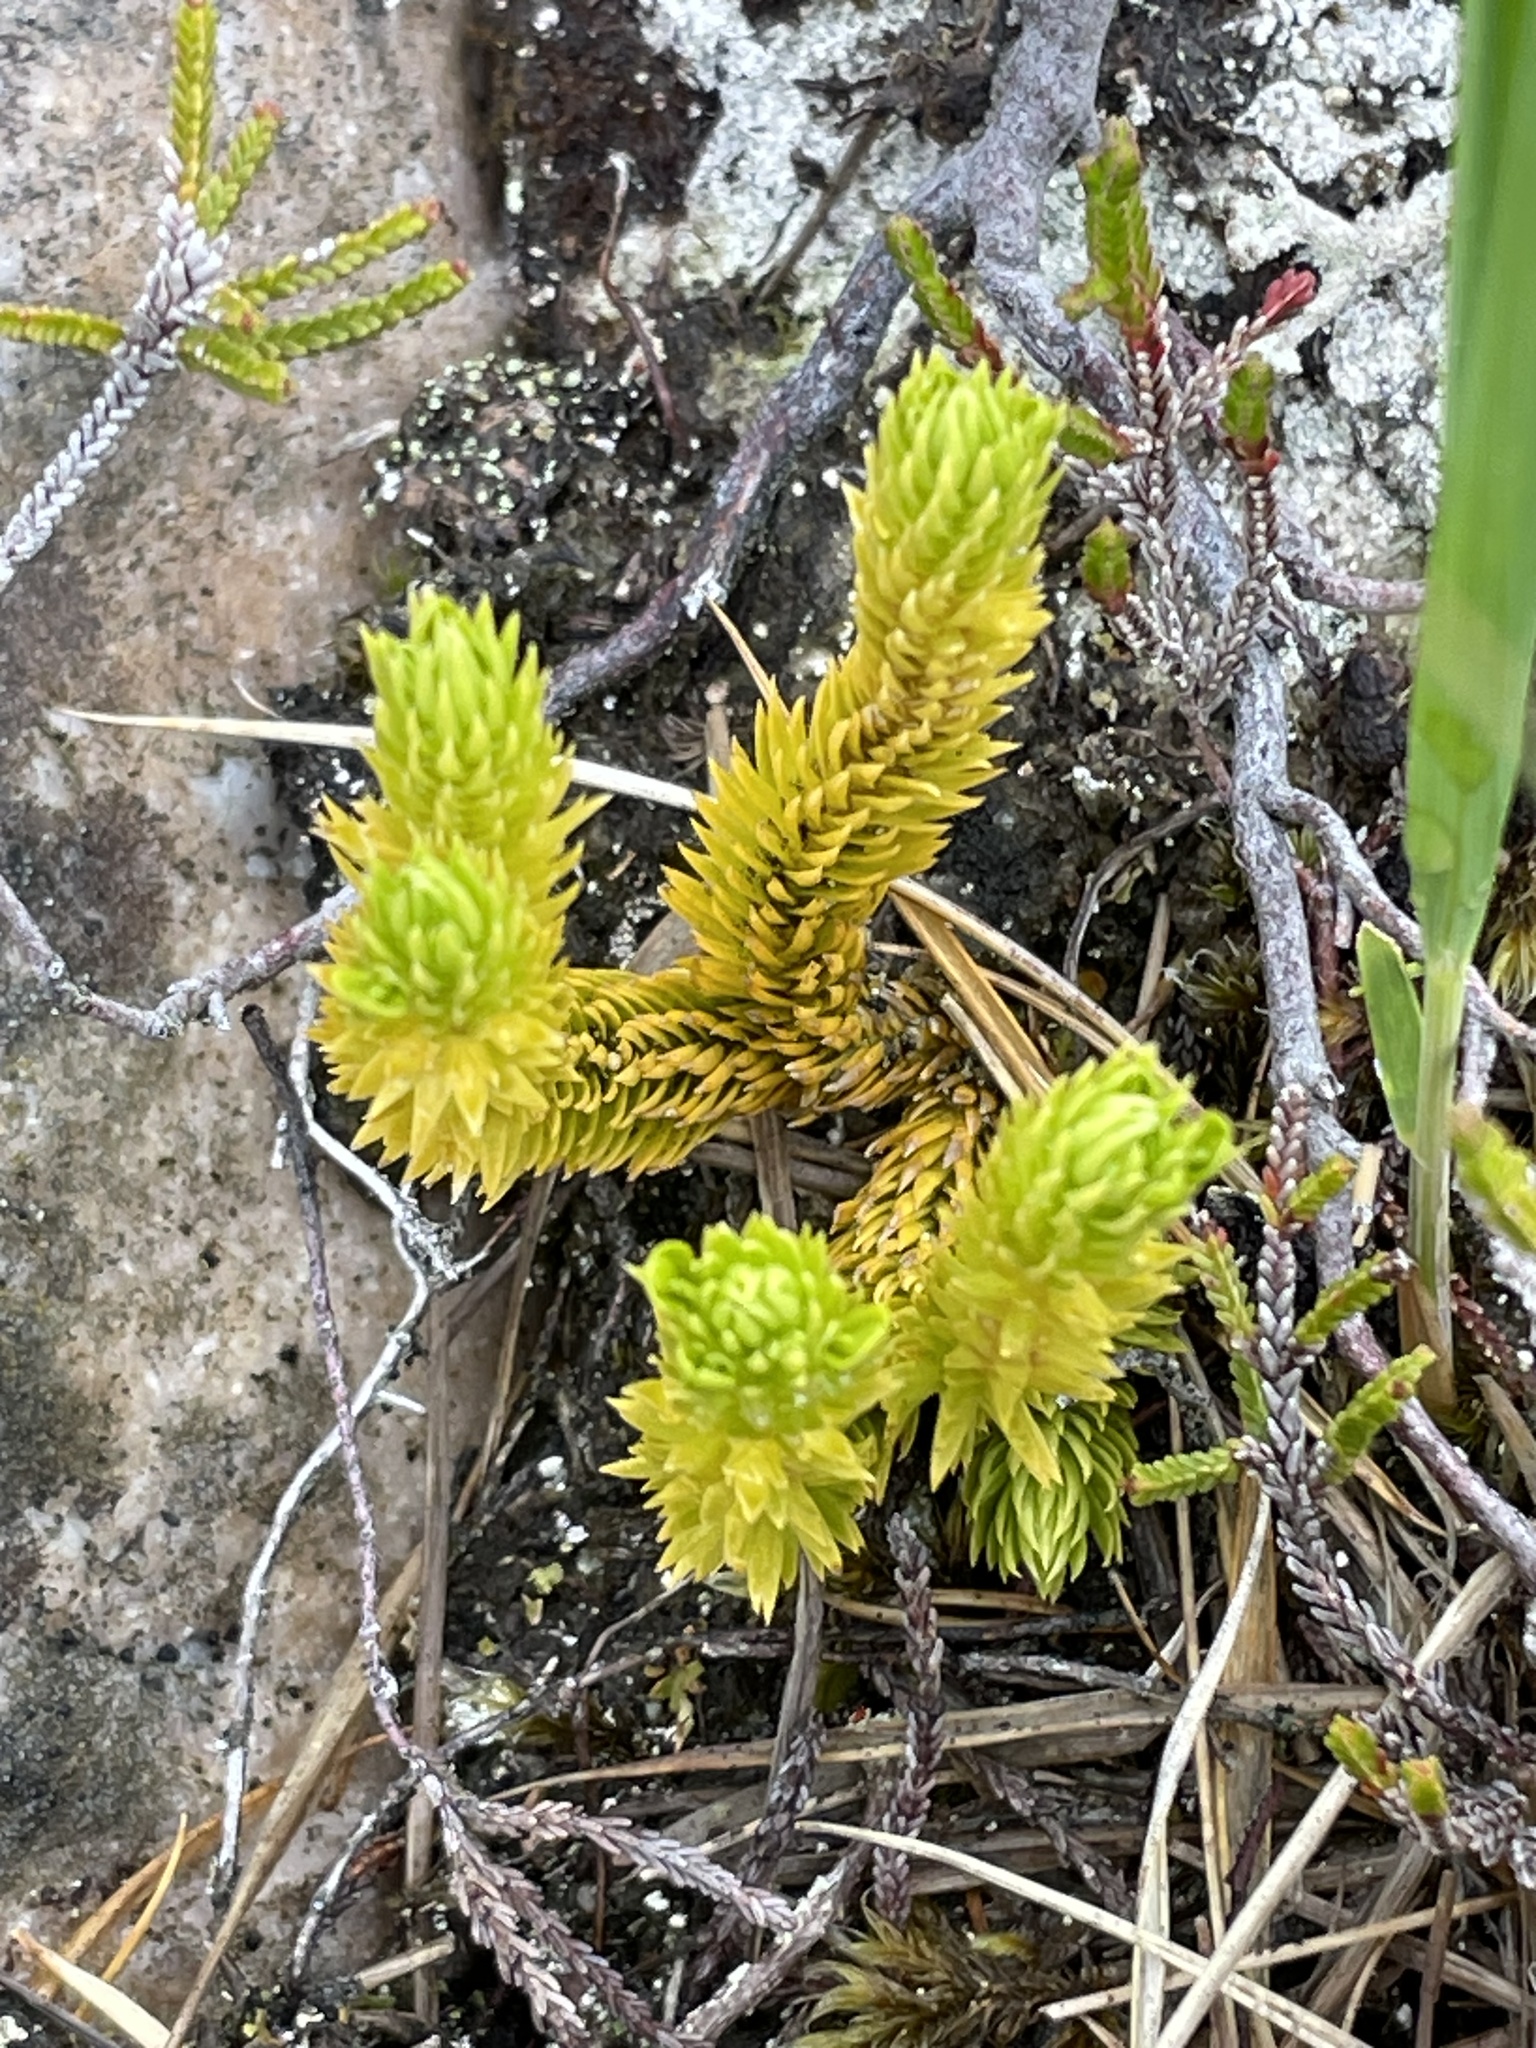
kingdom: Plantae
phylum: Tracheophyta
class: Lycopodiopsida
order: Lycopodiales
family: Lycopodiaceae
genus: Huperzia
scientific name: Huperzia selago
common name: Northern firmoss
